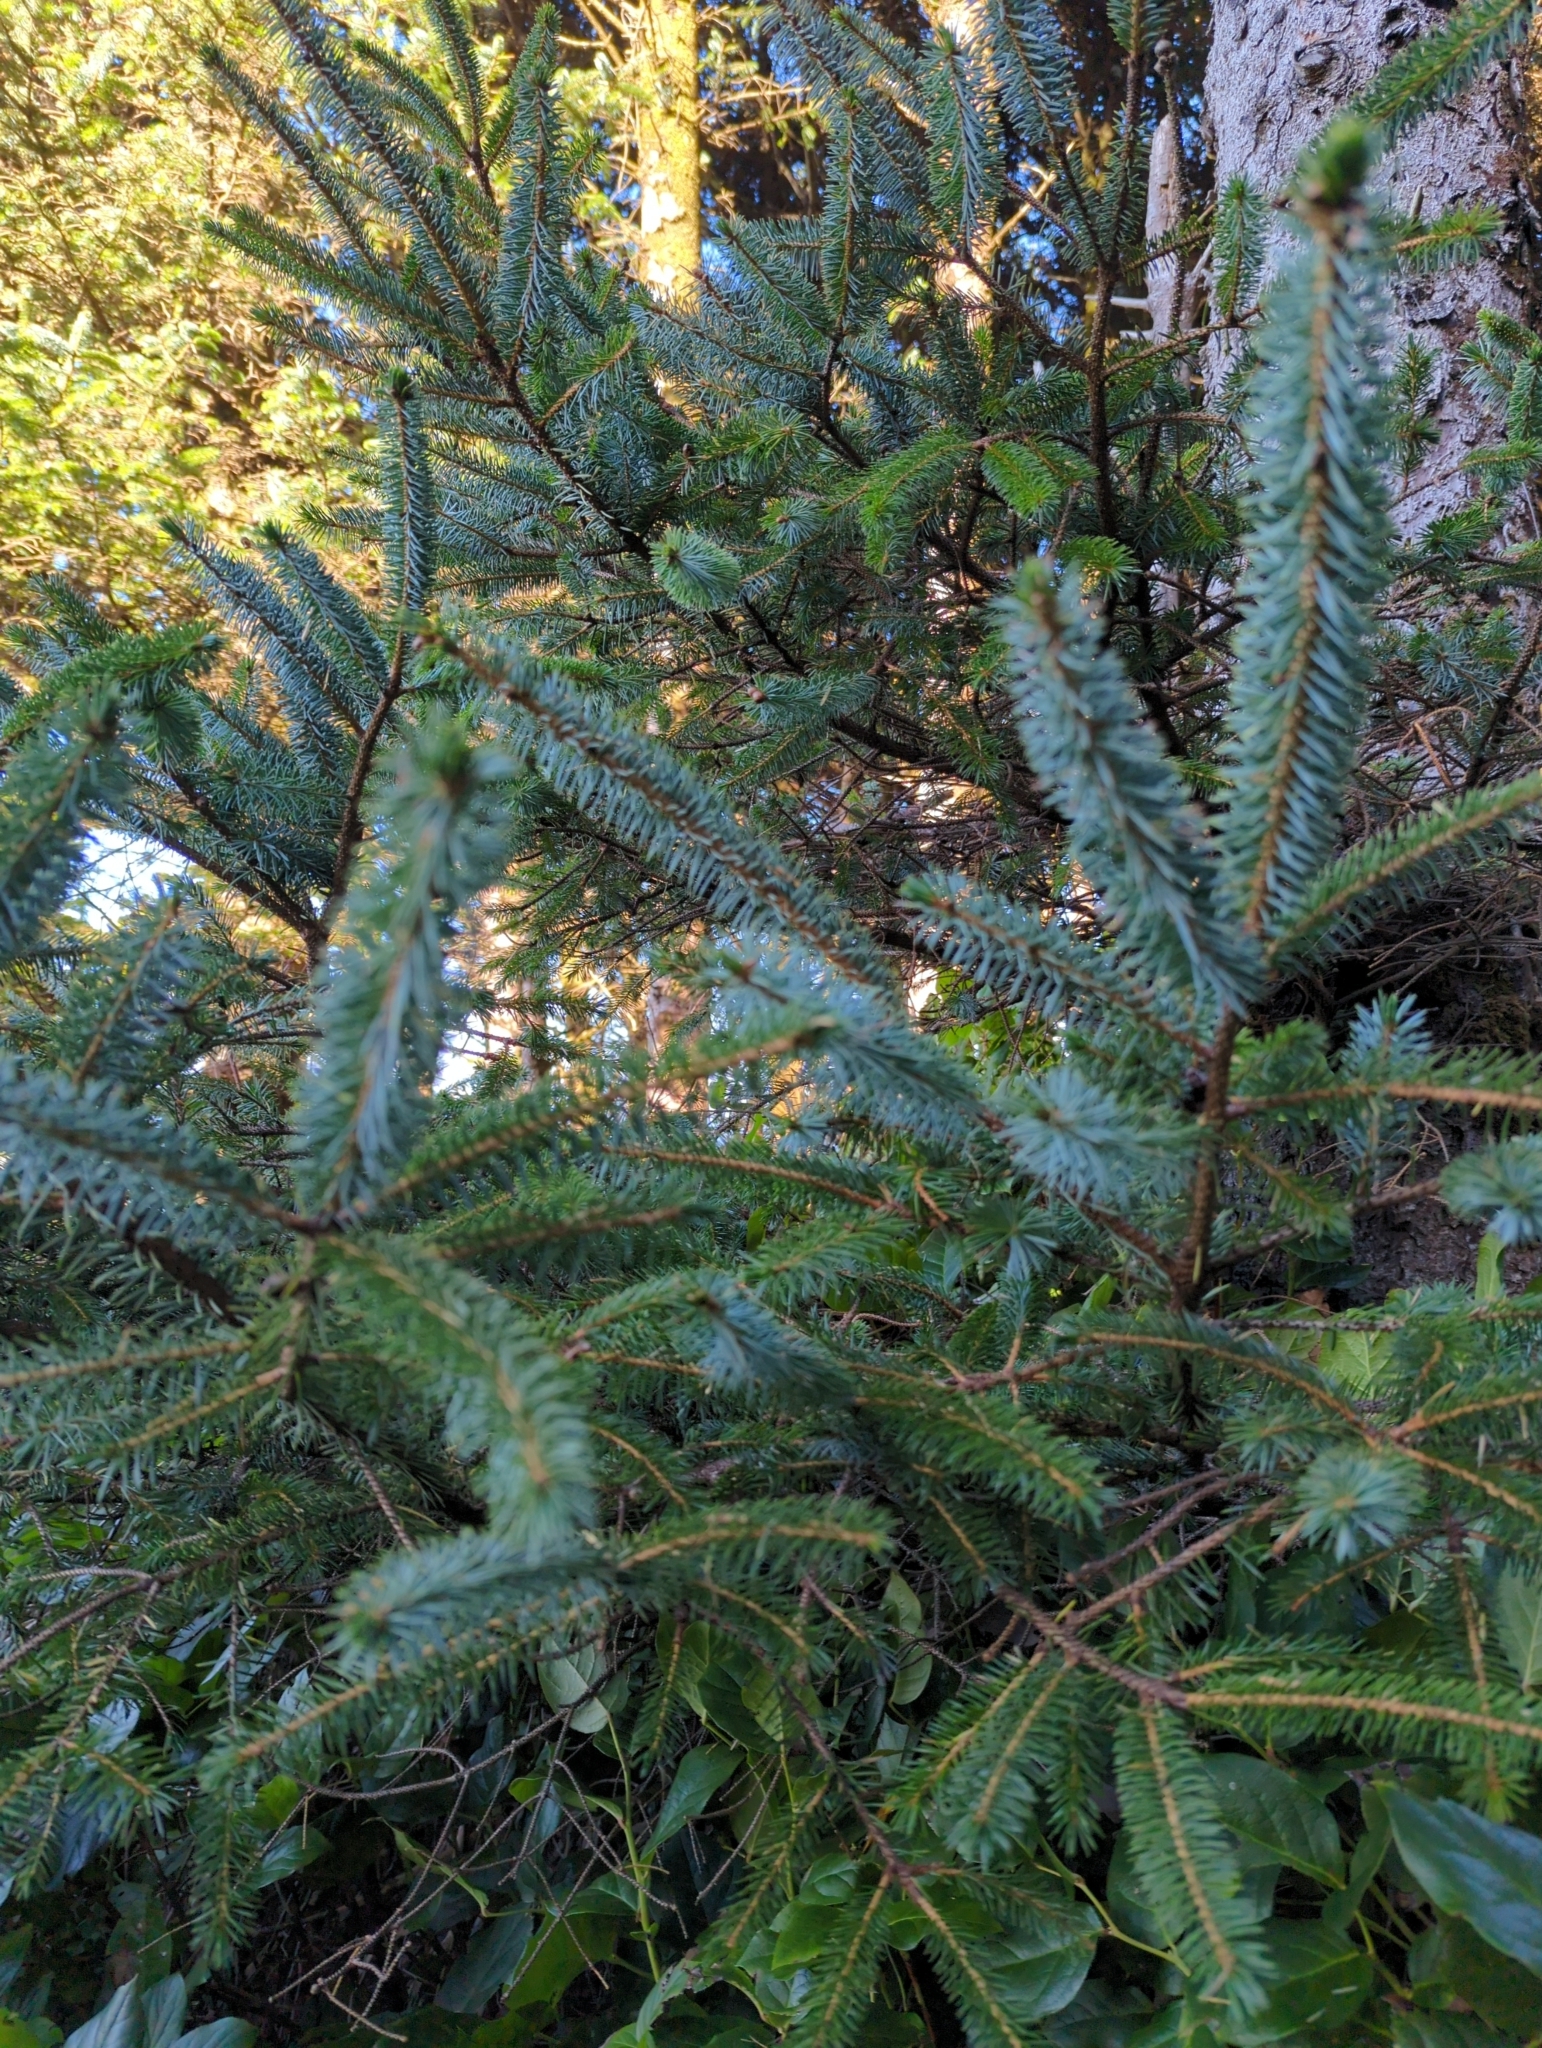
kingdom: Plantae
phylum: Tracheophyta
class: Pinopsida
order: Pinales
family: Pinaceae
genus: Picea
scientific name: Picea sitchensis
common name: Sitka spruce
